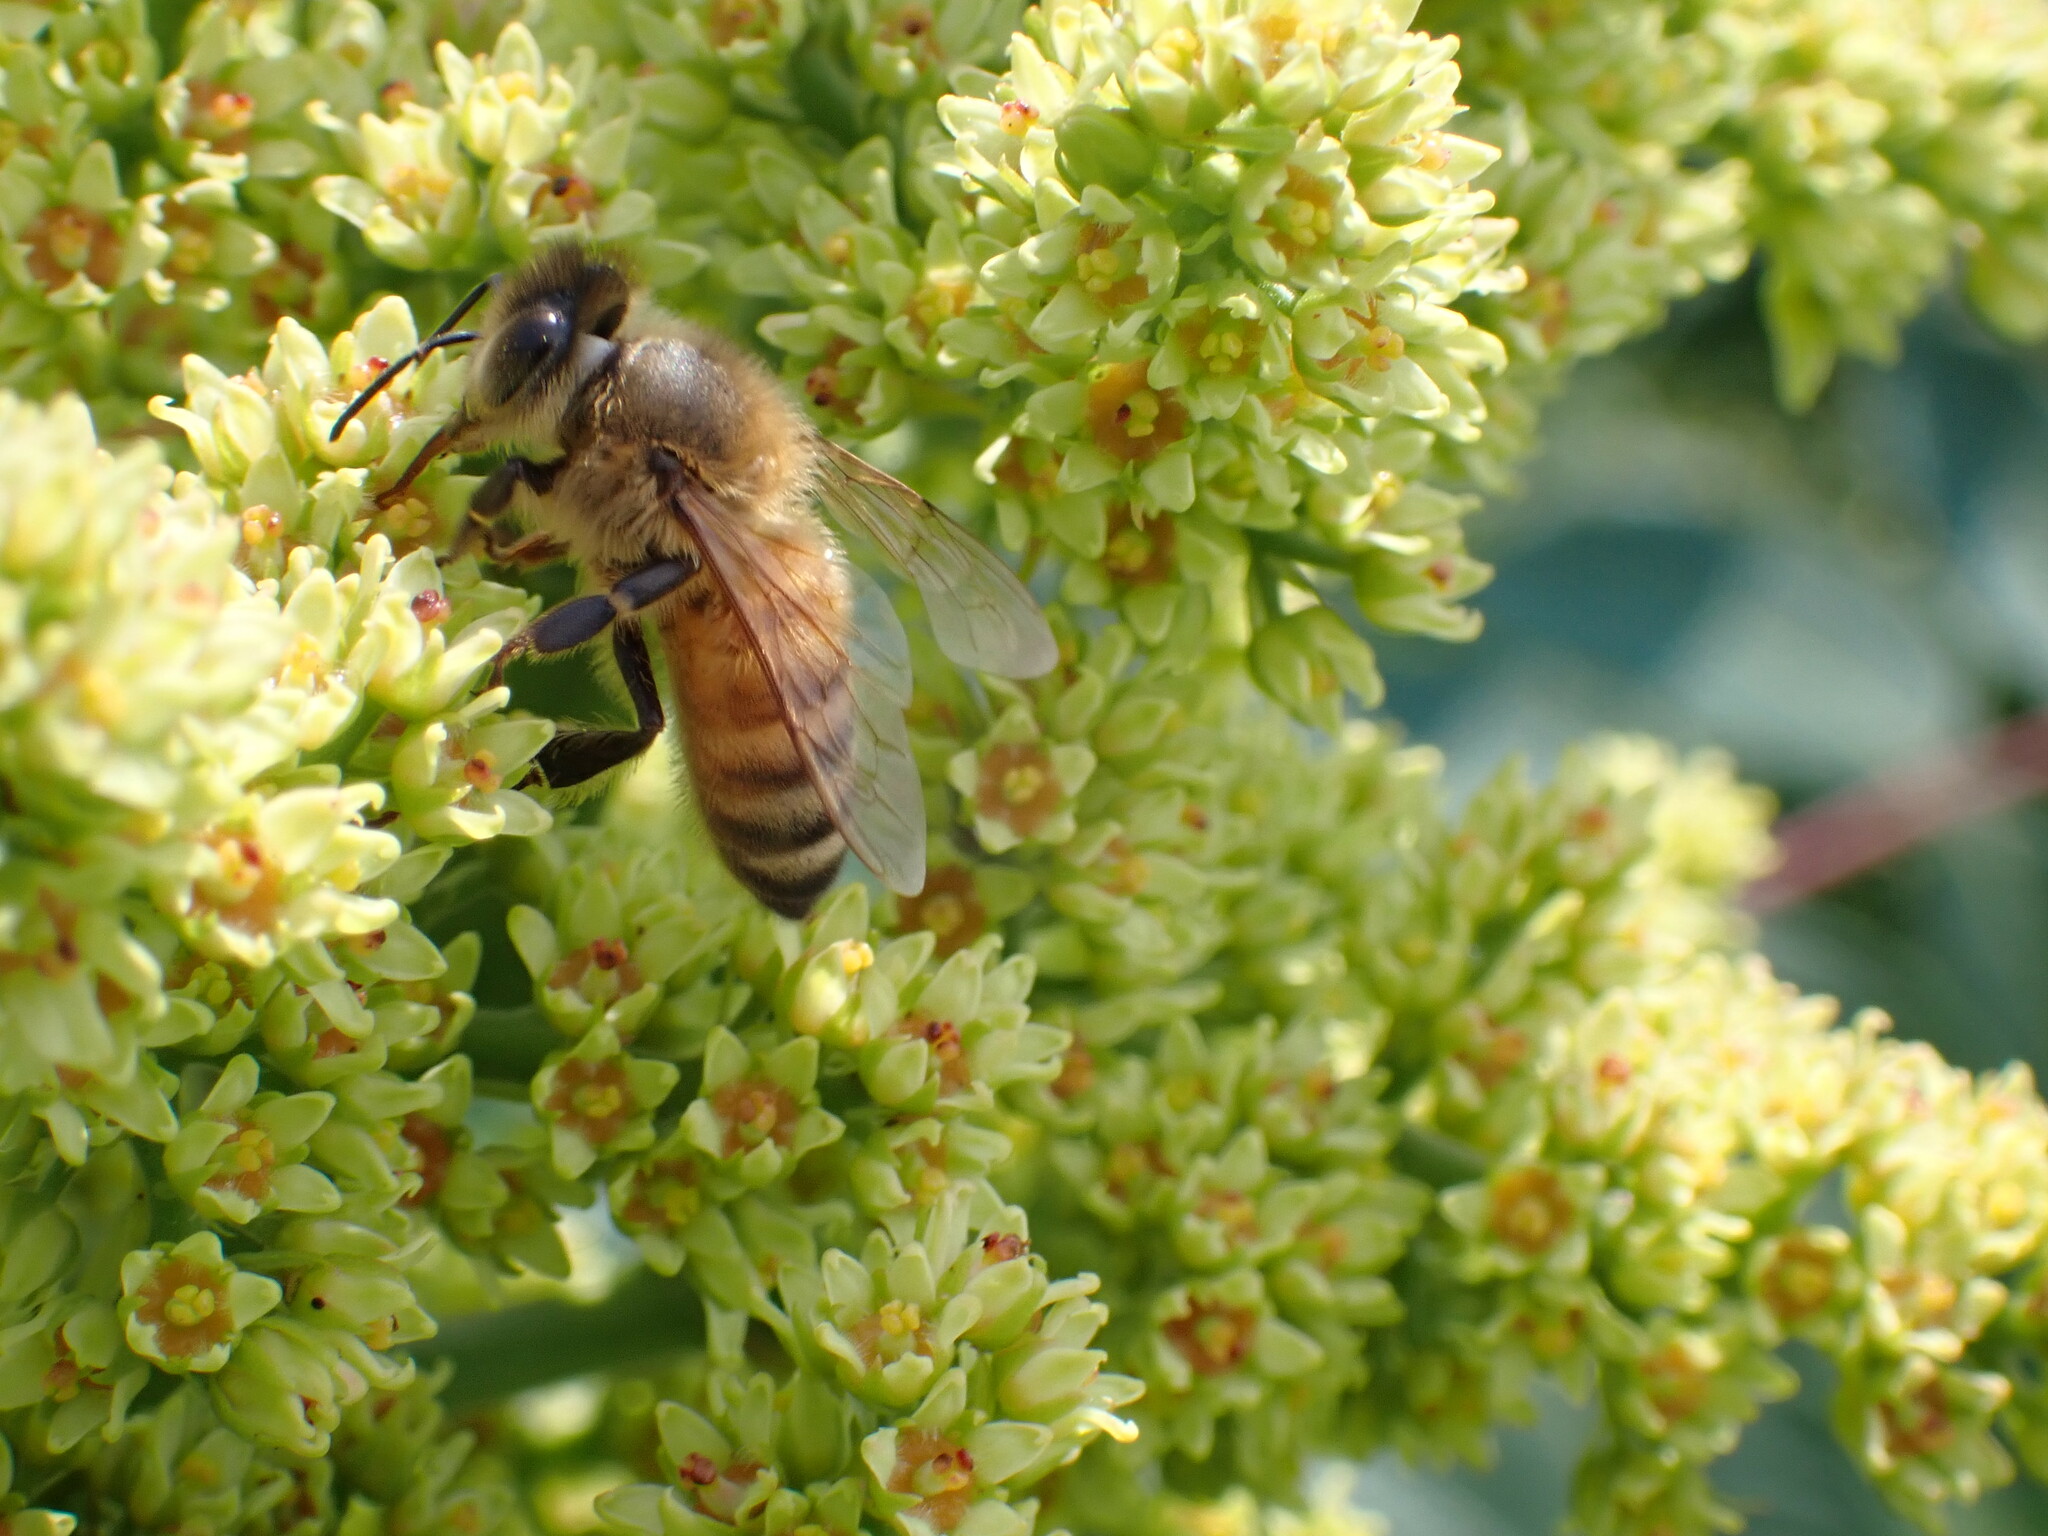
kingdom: Animalia
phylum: Arthropoda
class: Insecta
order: Hymenoptera
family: Apidae
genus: Apis
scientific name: Apis mellifera
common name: Honey bee
